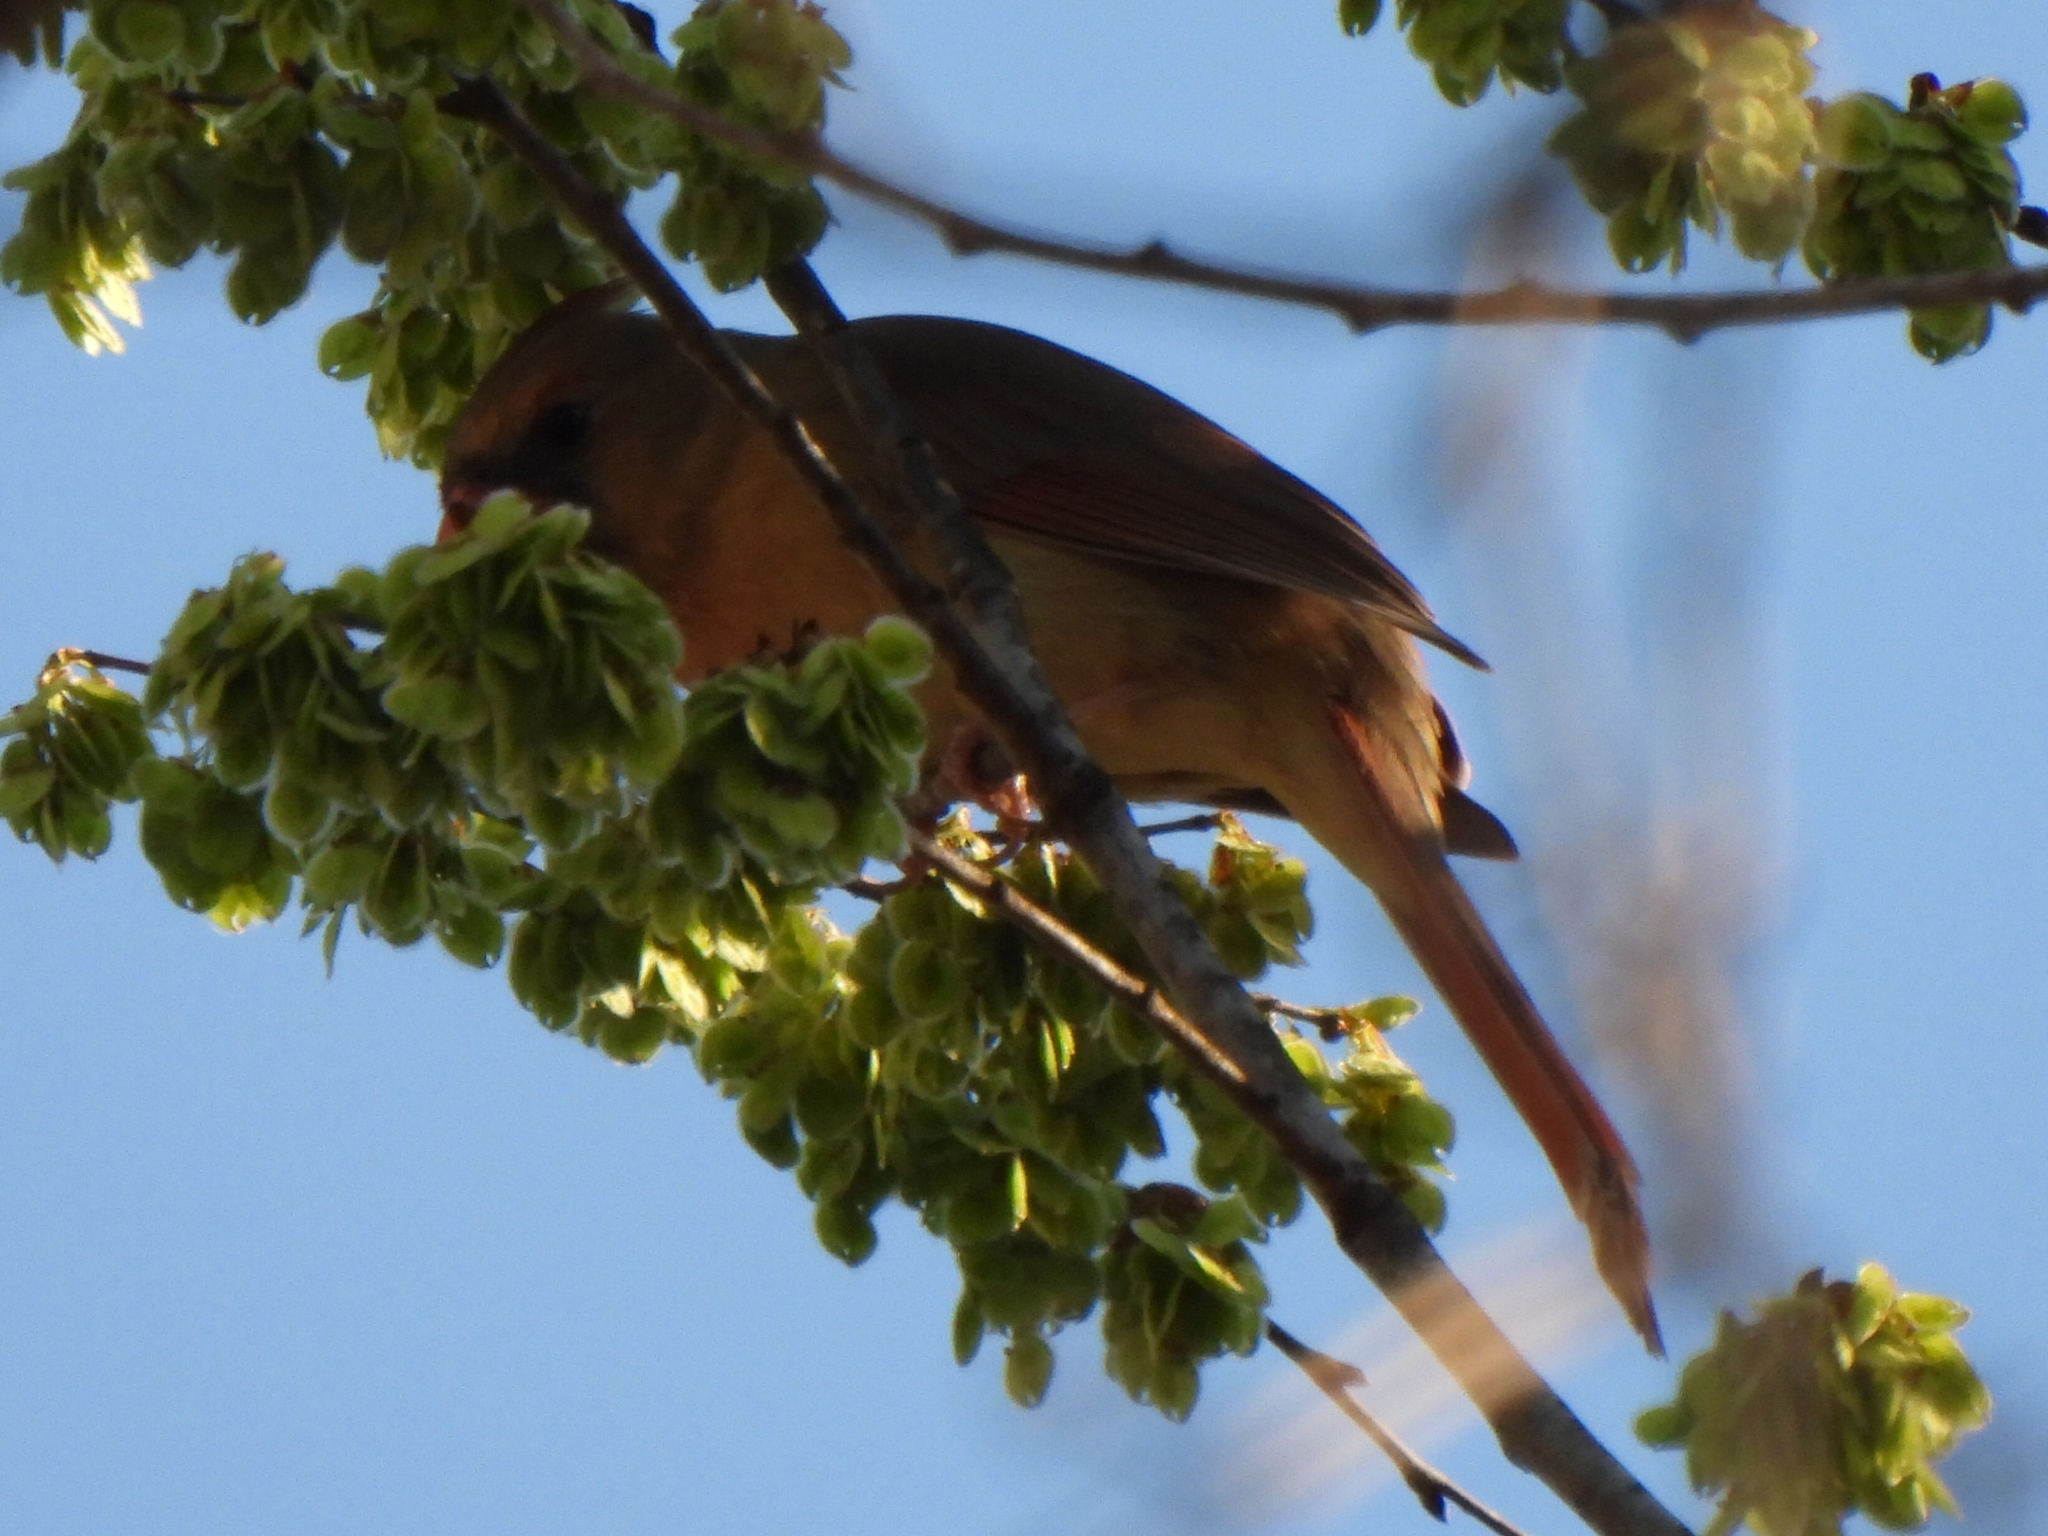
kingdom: Animalia
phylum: Chordata
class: Aves
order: Passeriformes
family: Cardinalidae
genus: Cardinalis
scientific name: Cardinalis cardinalis
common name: Northern cardinal
